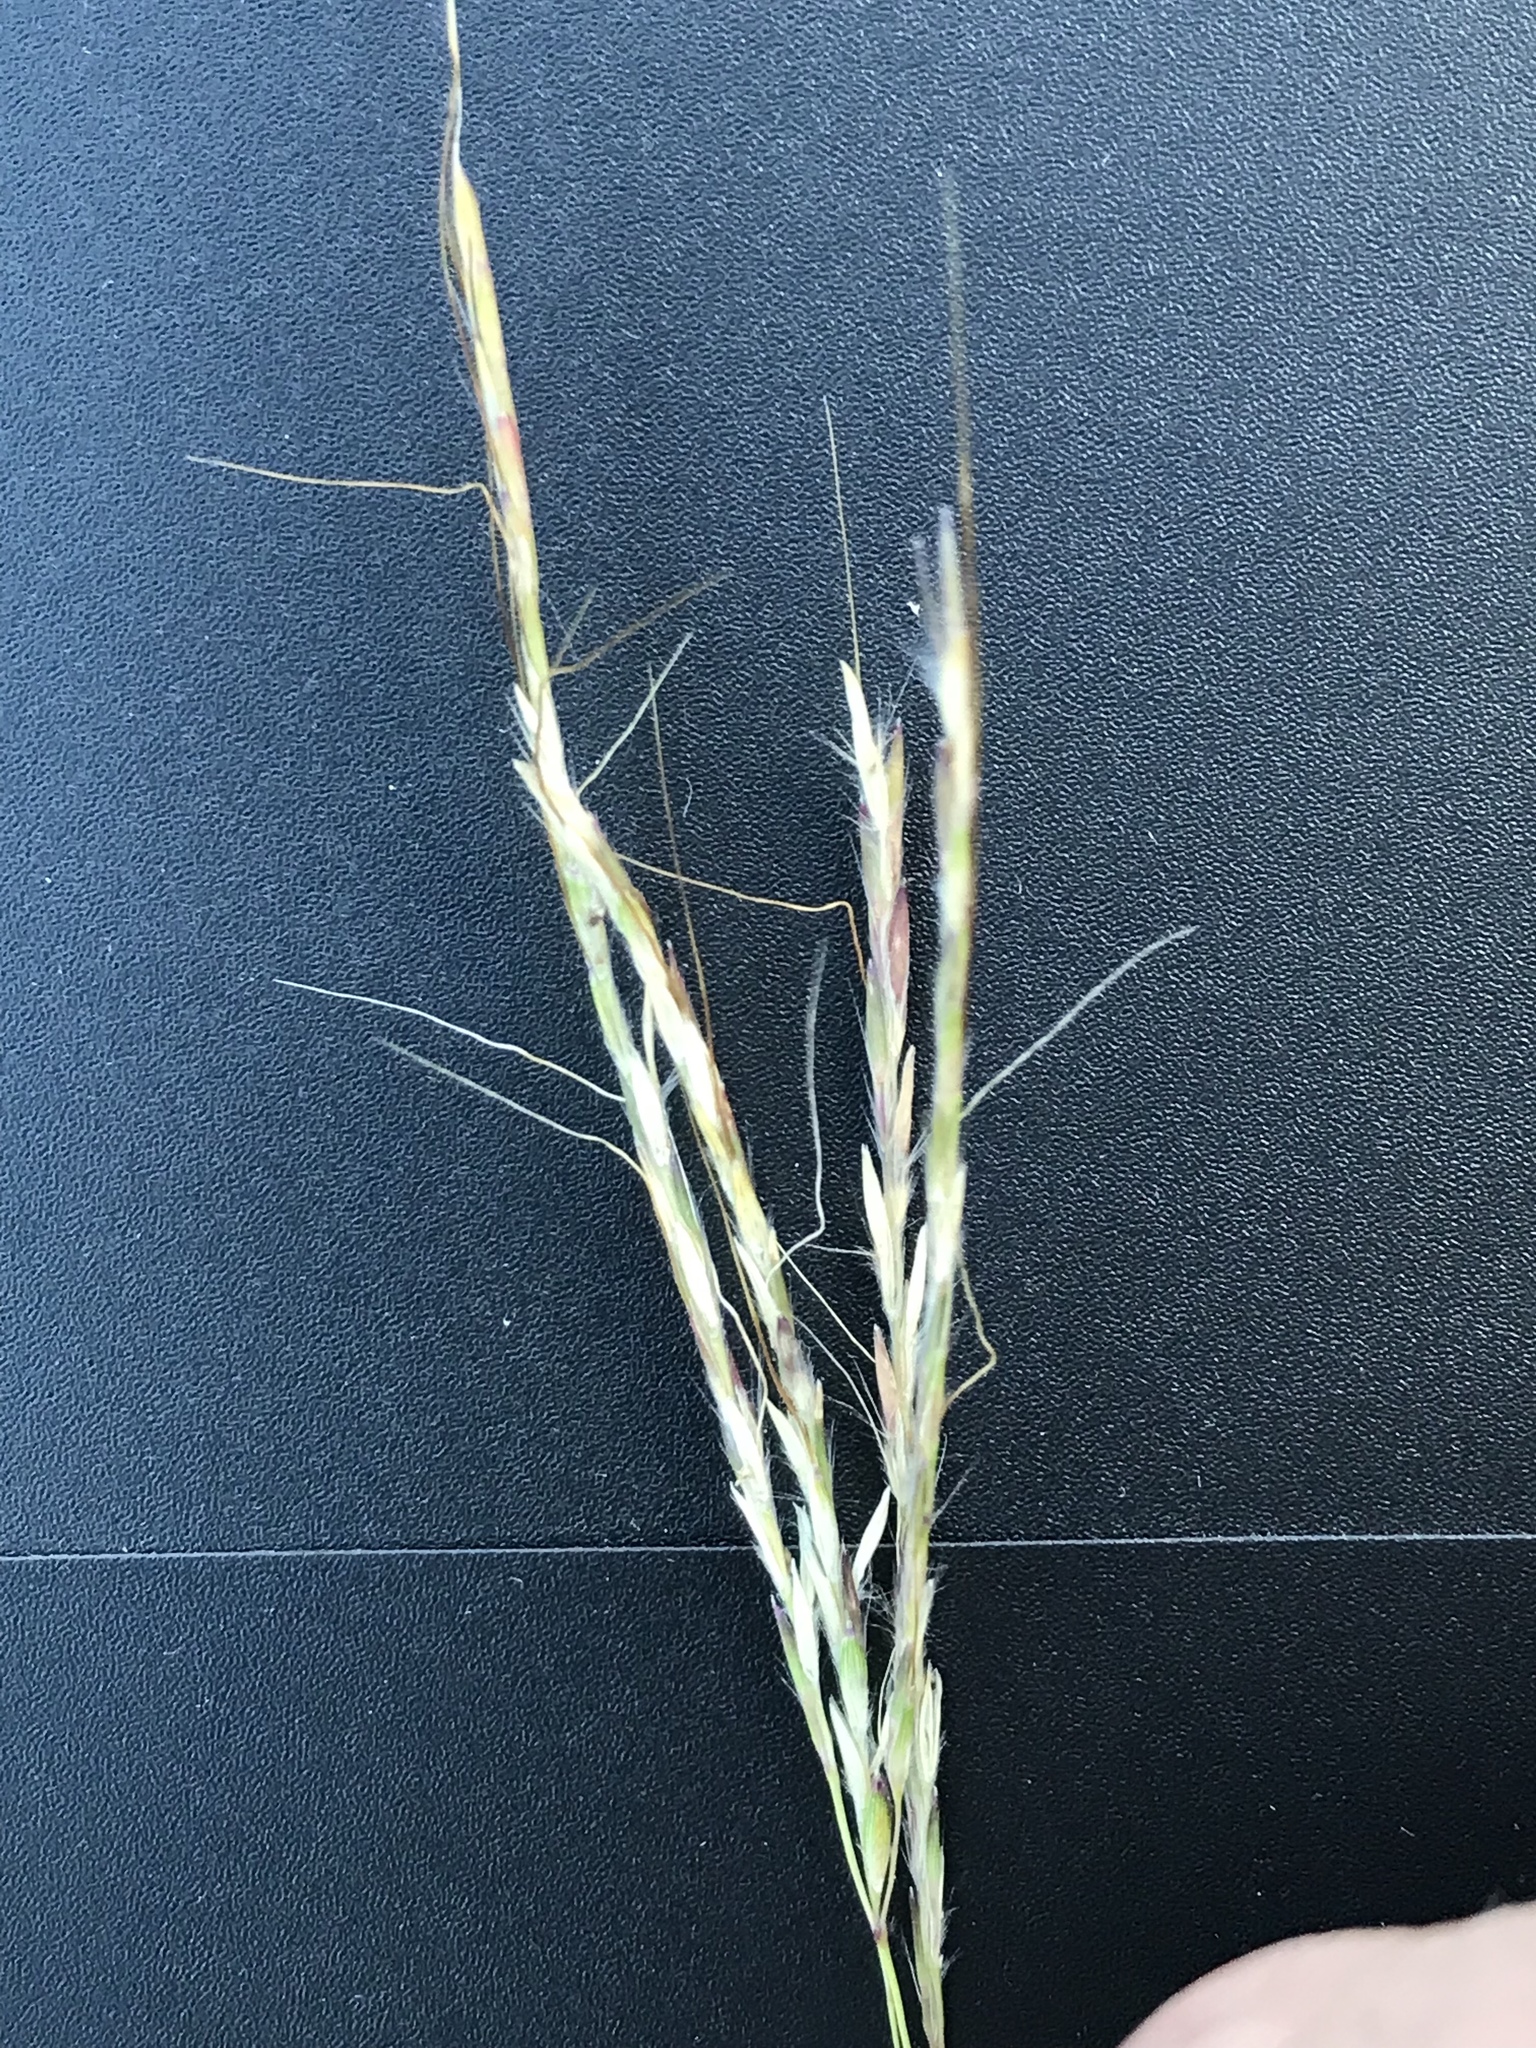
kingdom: Plantae
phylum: Tracheophyta
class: Liliopsida
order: Poales
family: Poaceae
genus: Bothriochloa
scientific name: Bothriochloa ischaemum
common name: Yellow bluestem
